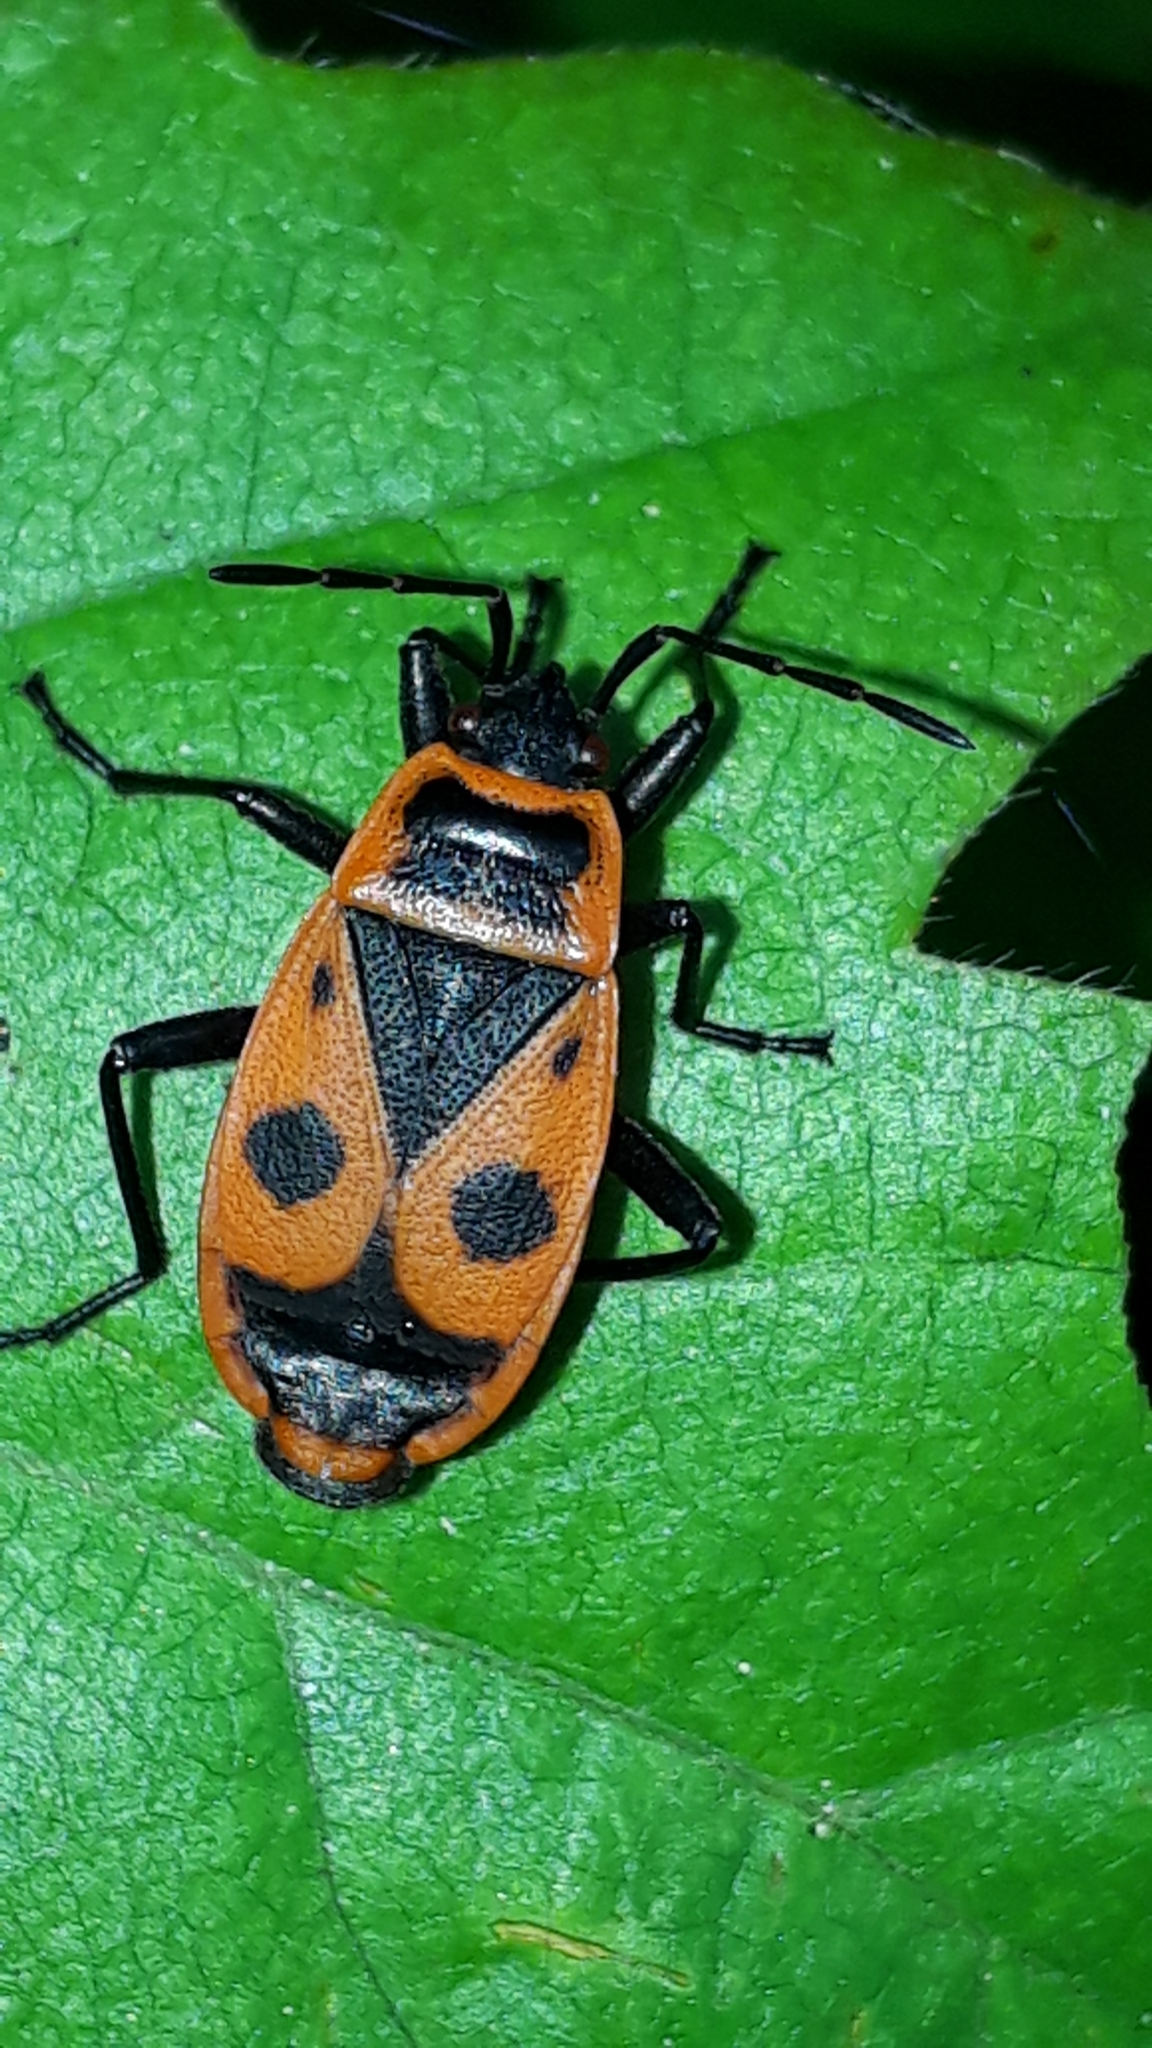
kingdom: Animalia
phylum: Arthropoda
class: Insecta
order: Hemiptera
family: Pyrrhocoridae
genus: Pyrrhocoris
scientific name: Pyrrhocoris apterus
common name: Firebug
